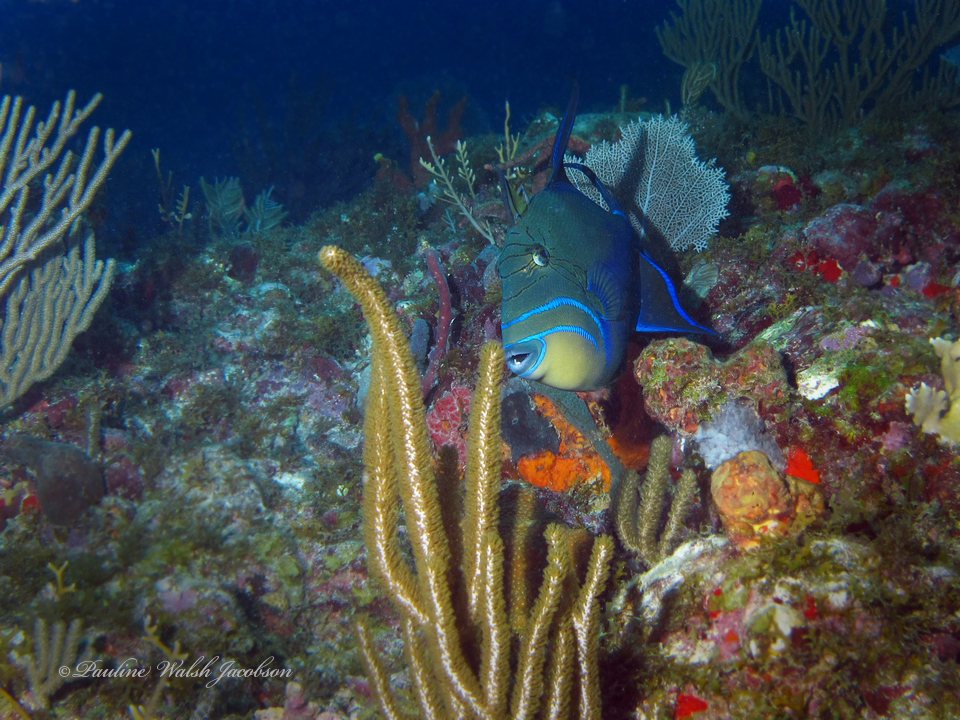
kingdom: Animalia
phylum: Chordata
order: Tetraodontiformes
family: Balistidae
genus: Balistes
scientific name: Balistes vetula
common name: Queen triggerfish
